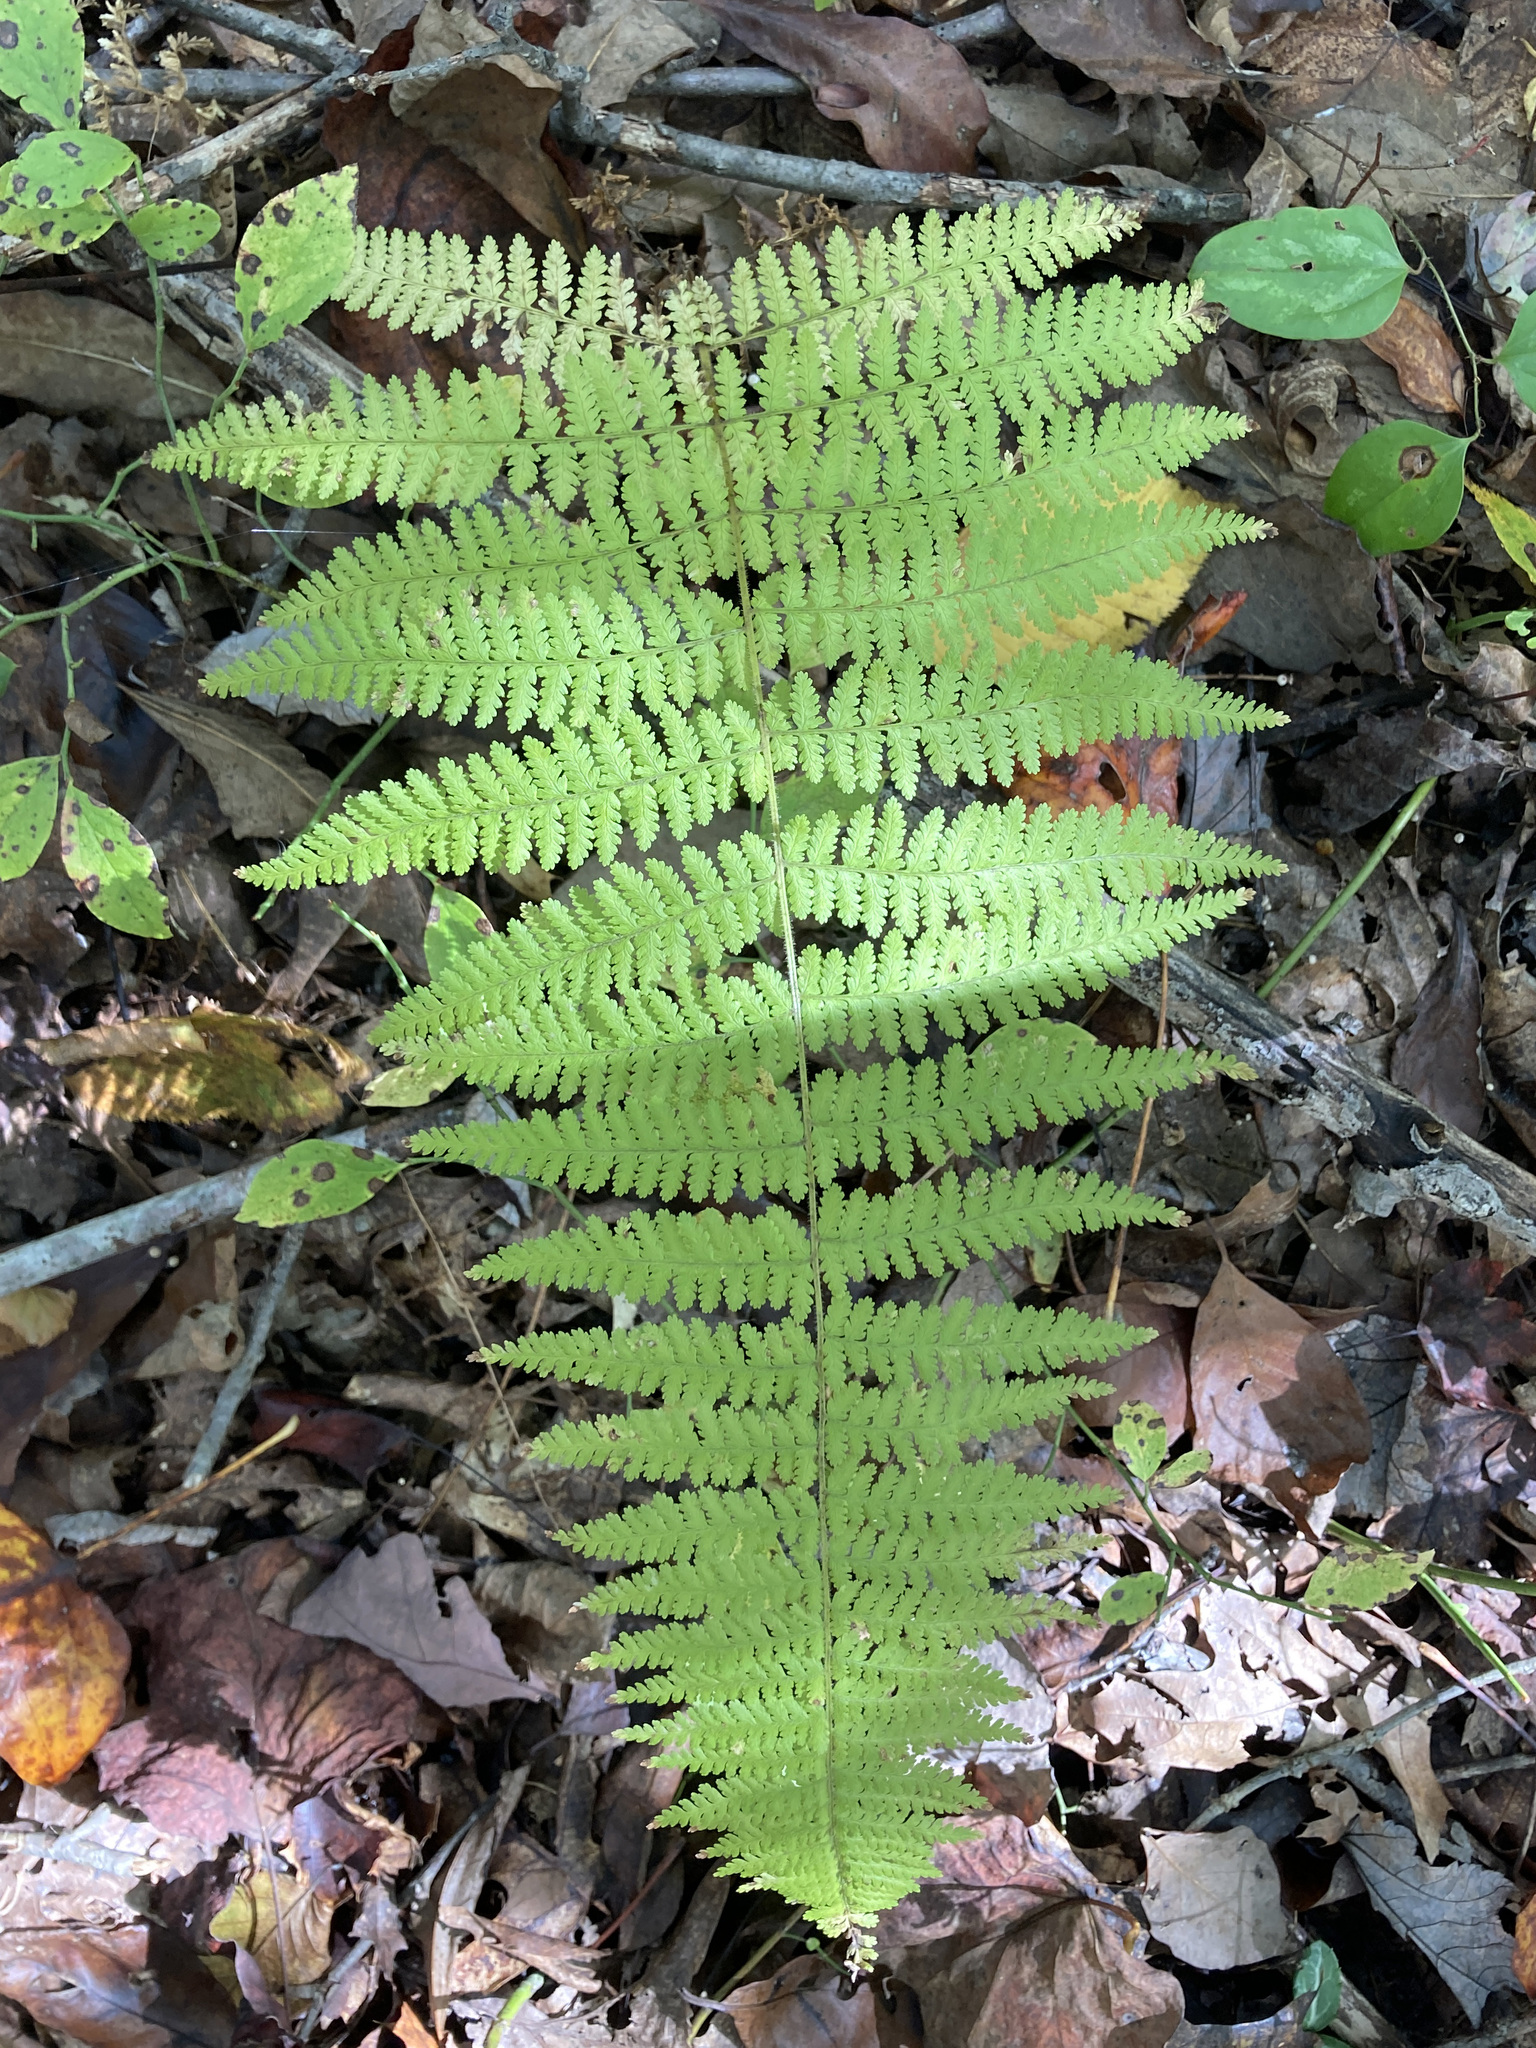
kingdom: Plantae
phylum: Tracheophyta
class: Polypodiopsida
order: Polypodiales
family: Dennstaedtiaceae
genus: Sitobolium
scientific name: Sitobolium punctilobum
